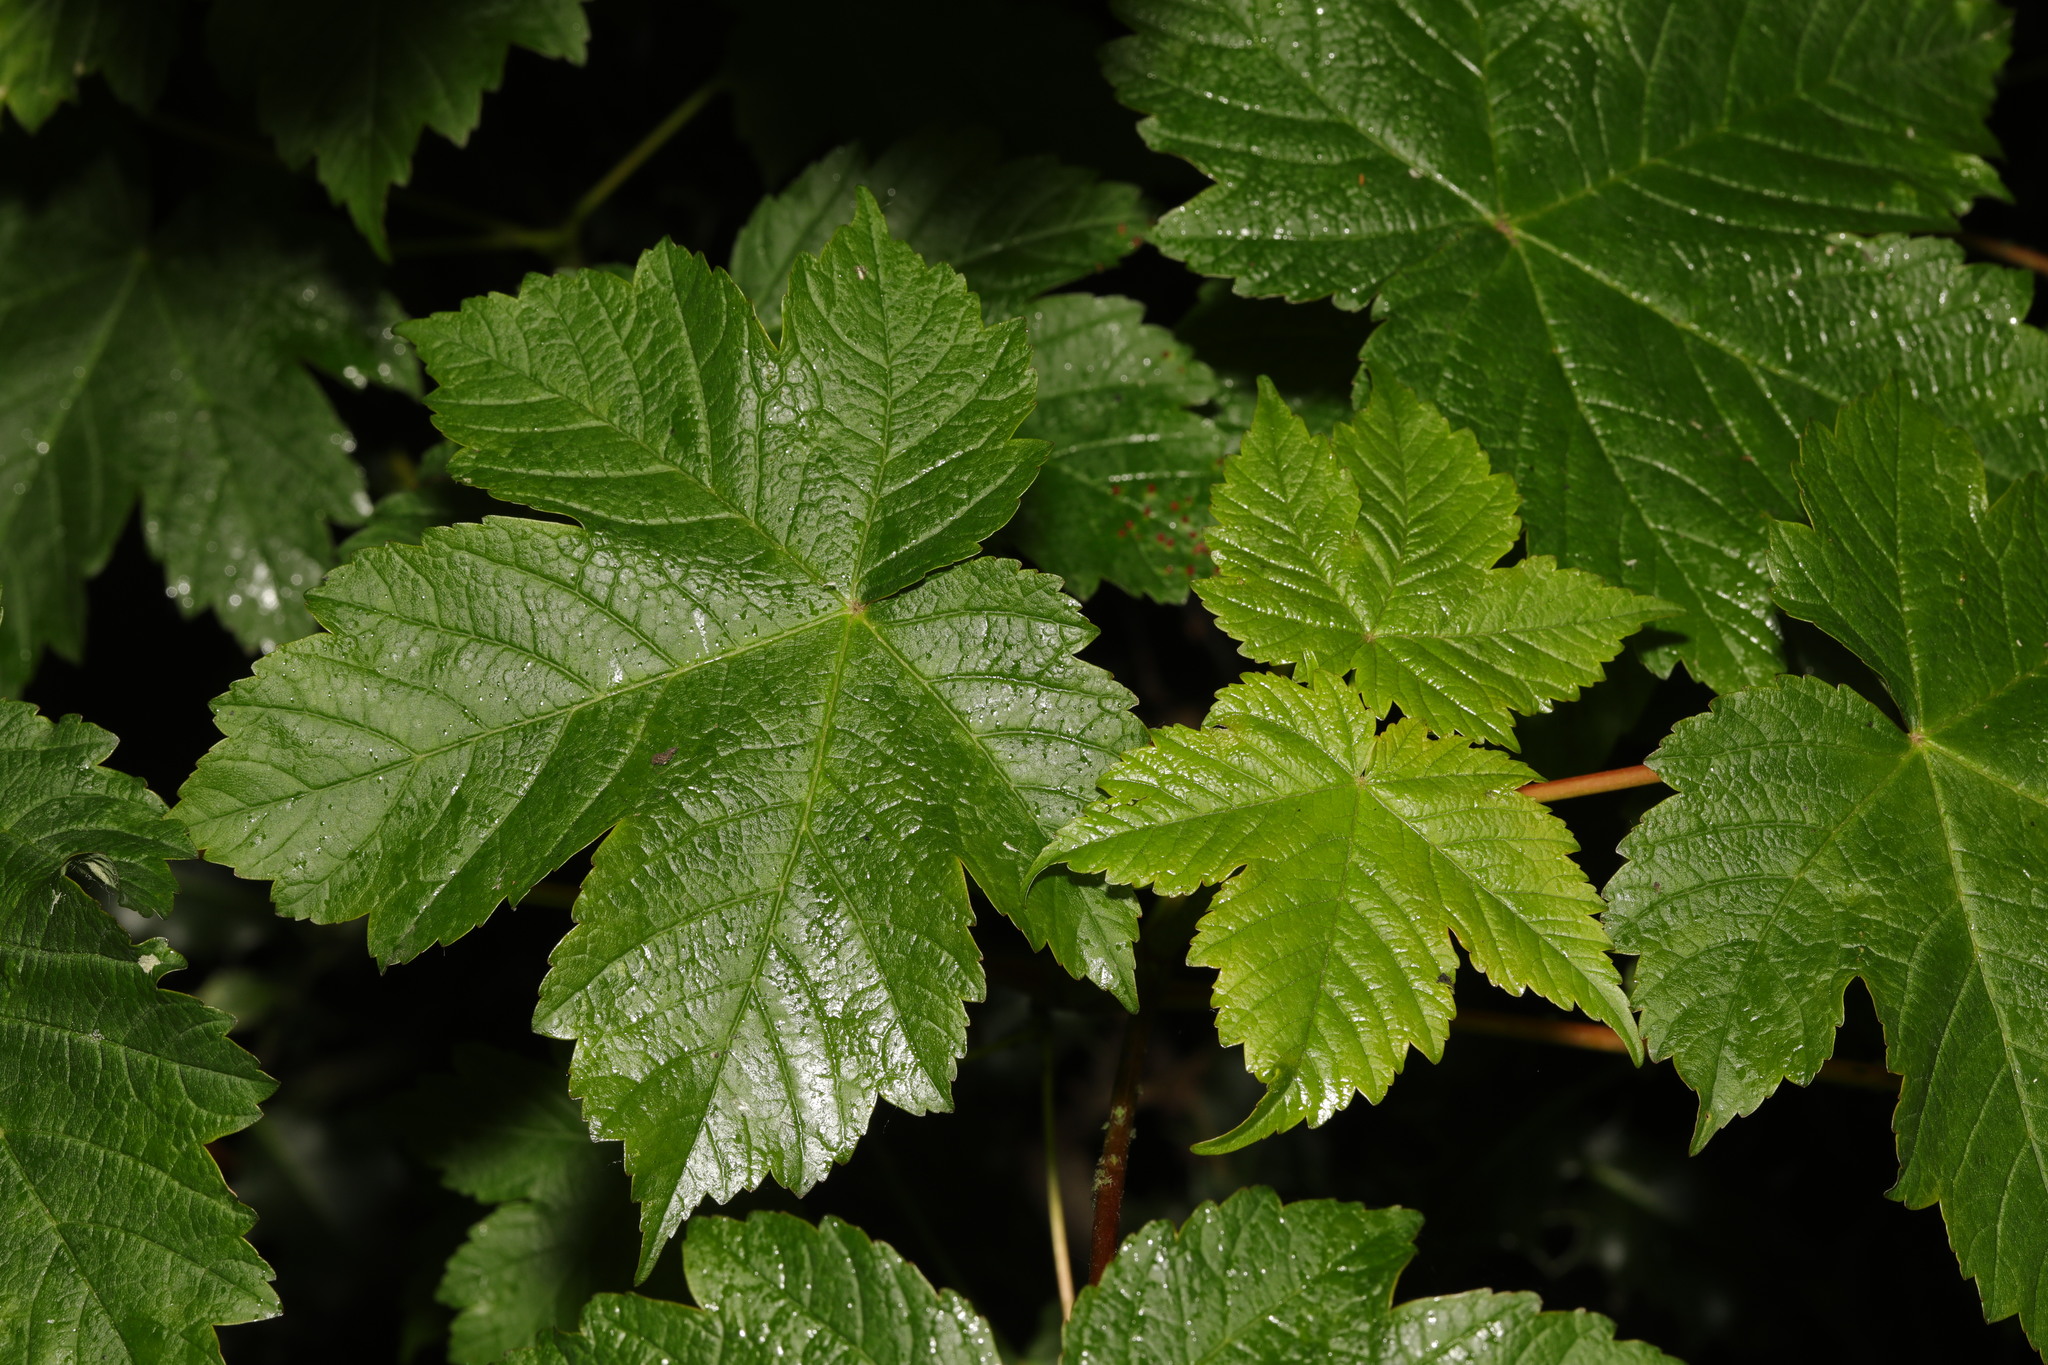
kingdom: Plantae
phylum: Tracheophyta
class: Magnoliopsida
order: Sapindales
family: Sapindaceae
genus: Acer
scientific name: Acer pseudoplatanus
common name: Sycamore
